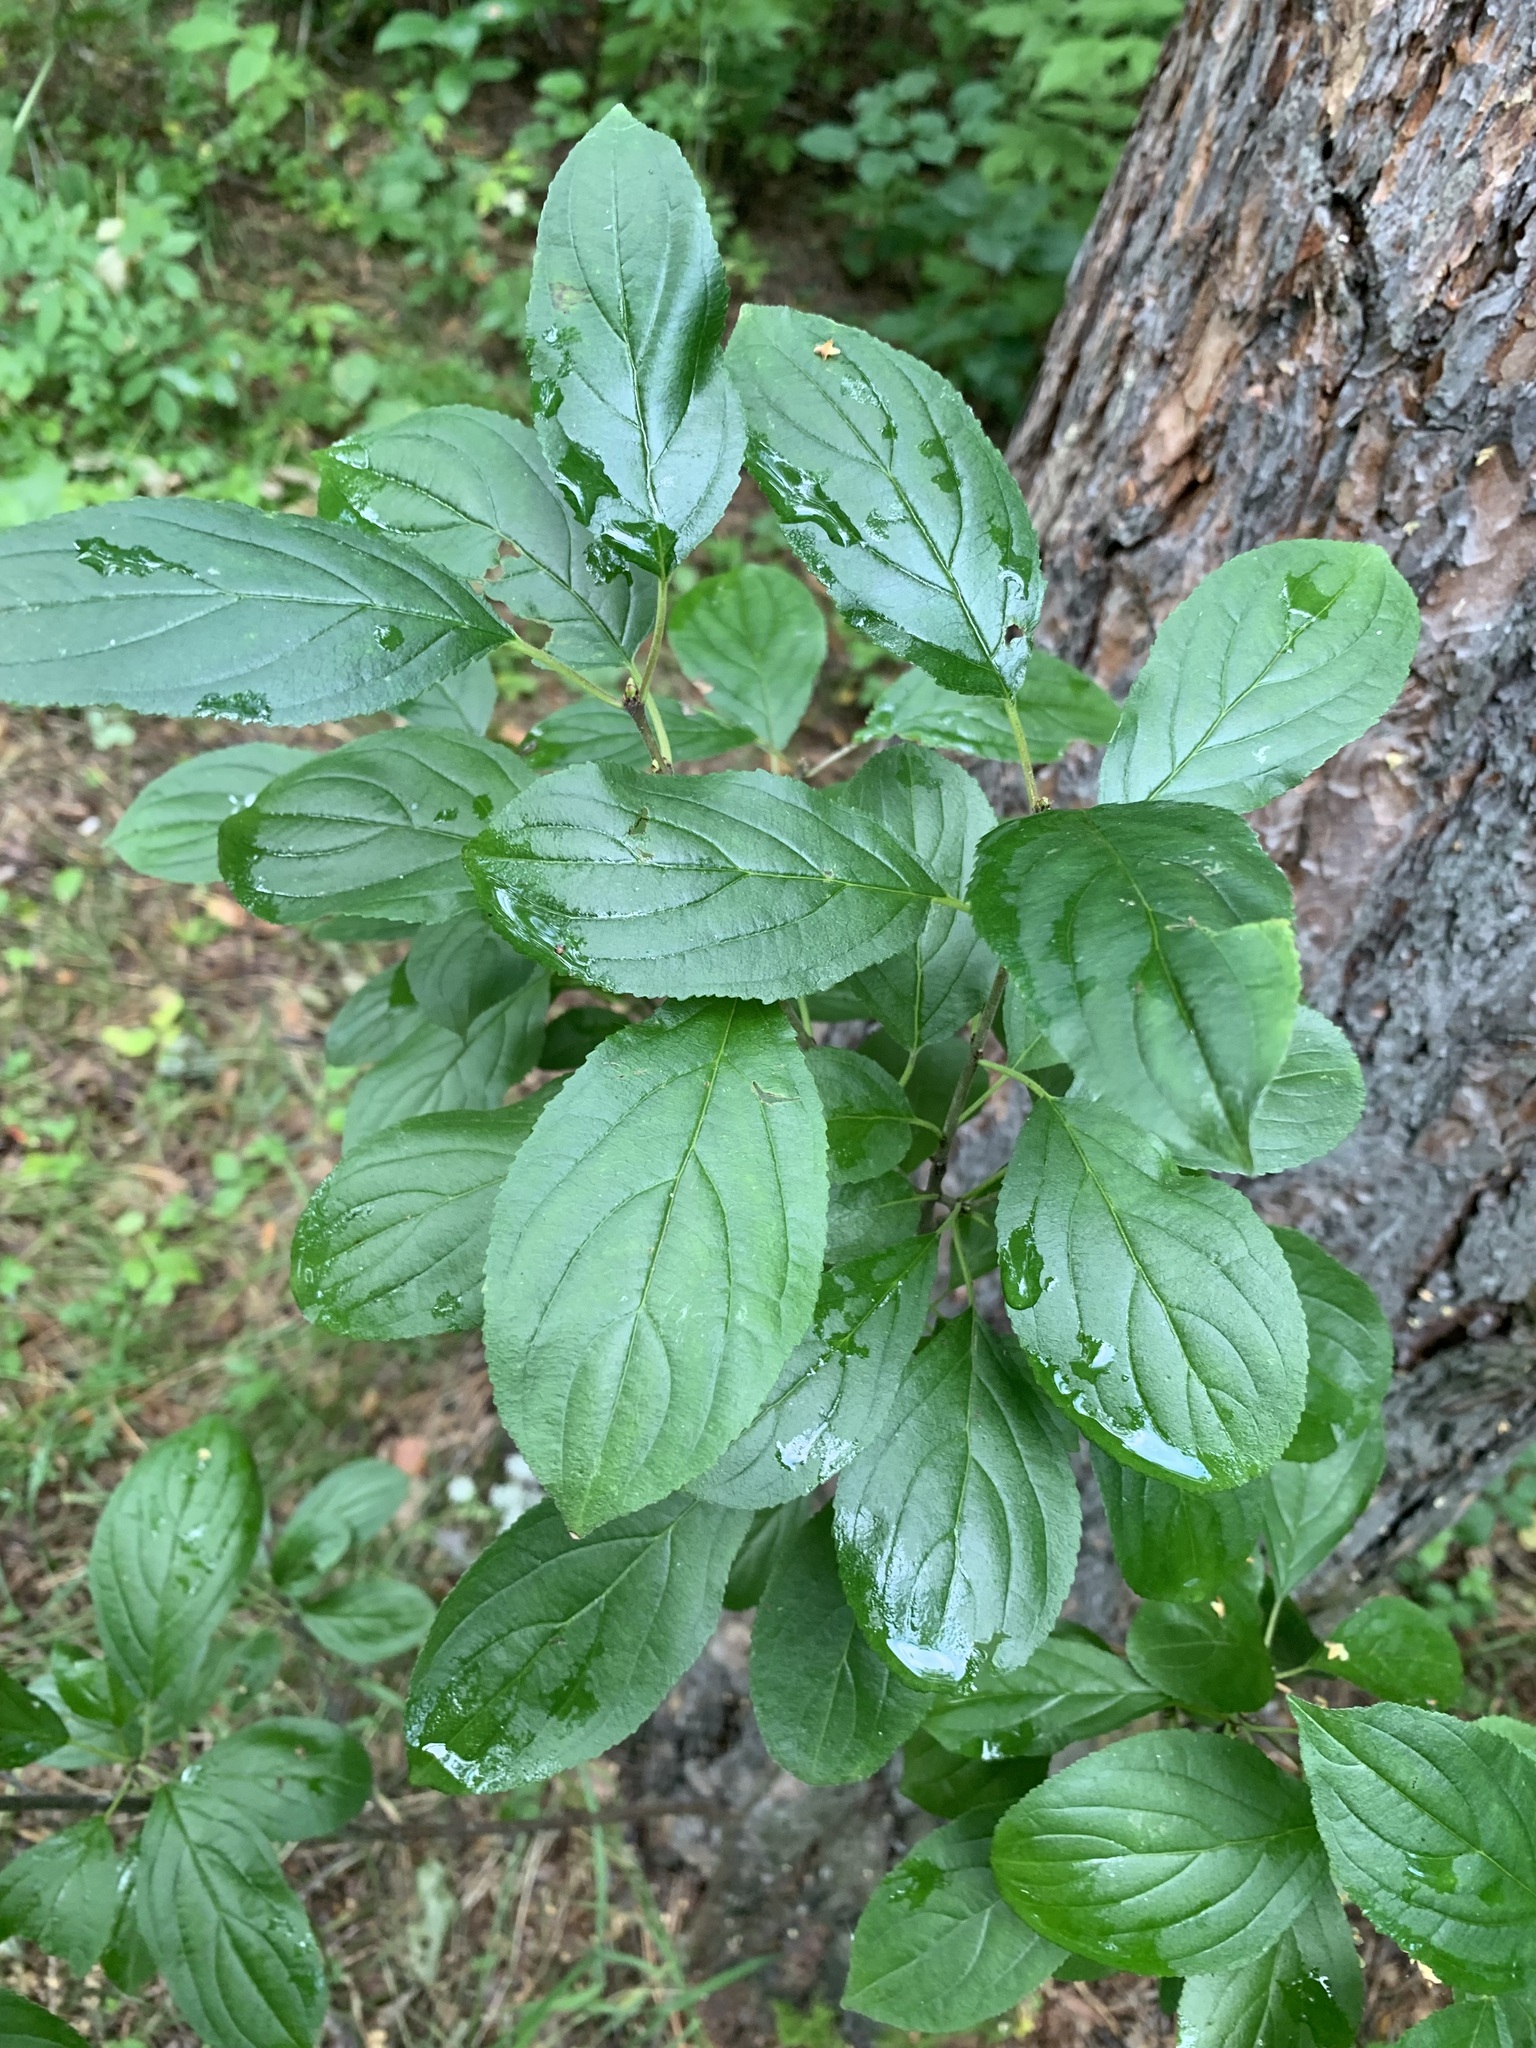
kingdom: Plantae
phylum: Tracheophyta
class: Magnoliopsida
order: Rosales
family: Rhamnaceae
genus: Rhamnus
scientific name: Rhamnus cathartica
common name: Common buckthorn
